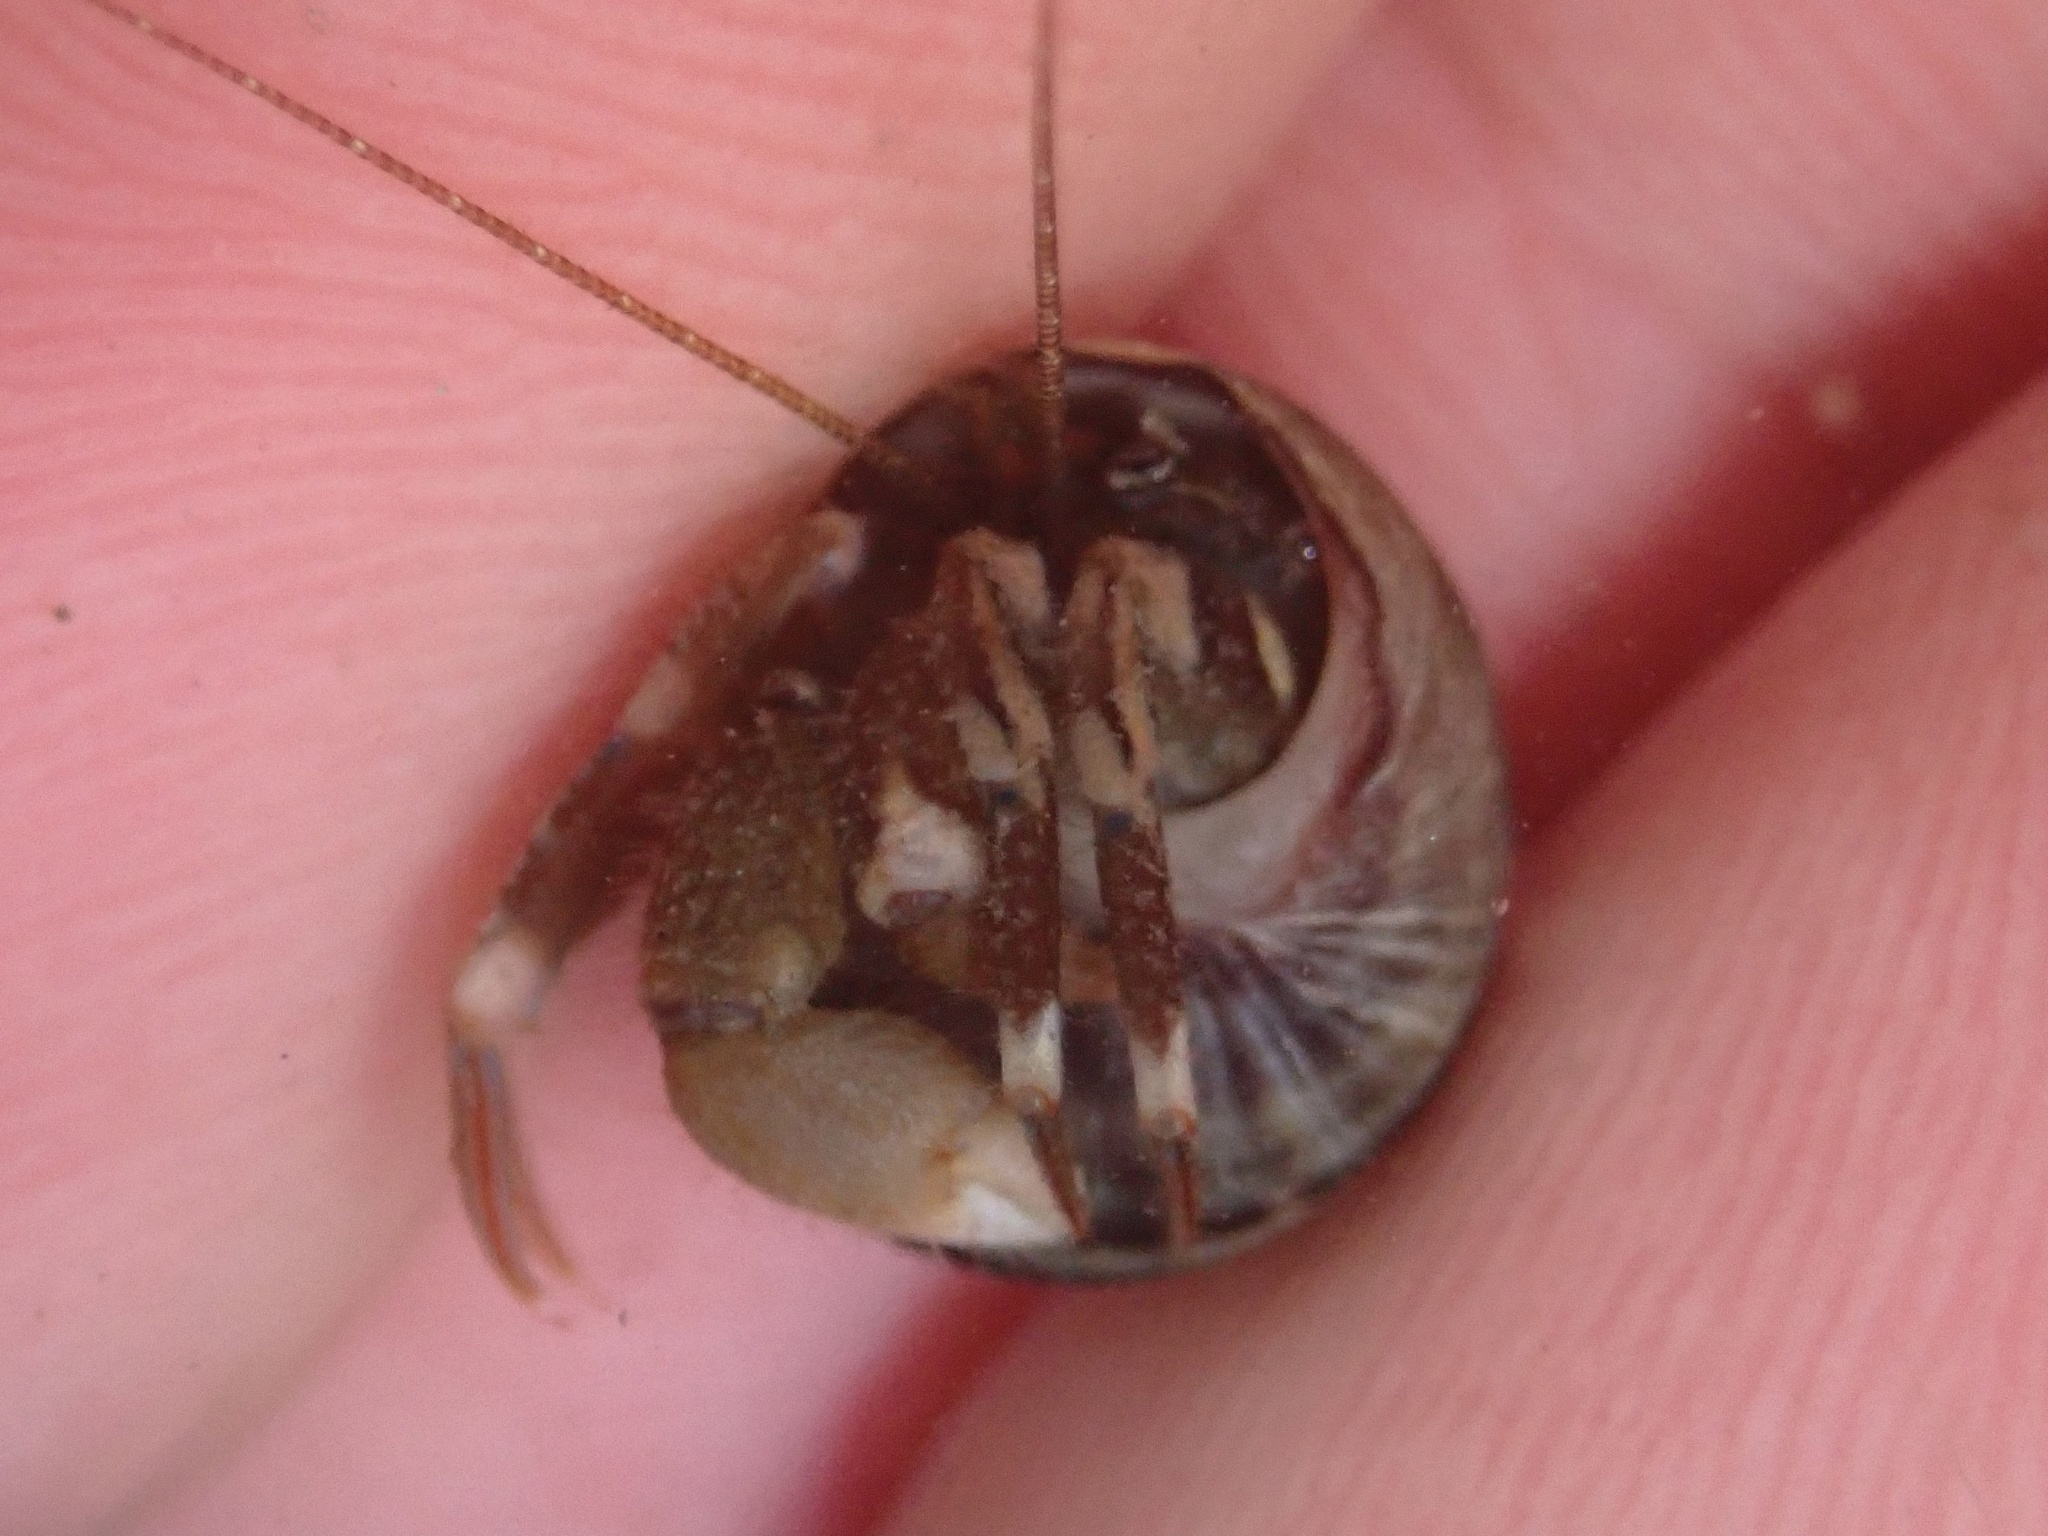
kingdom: Animalia
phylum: Arthropoda
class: Malacostraca
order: Decapoda
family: Paguridae
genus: Pagurus
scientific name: Pagurus hirsutiusculus
